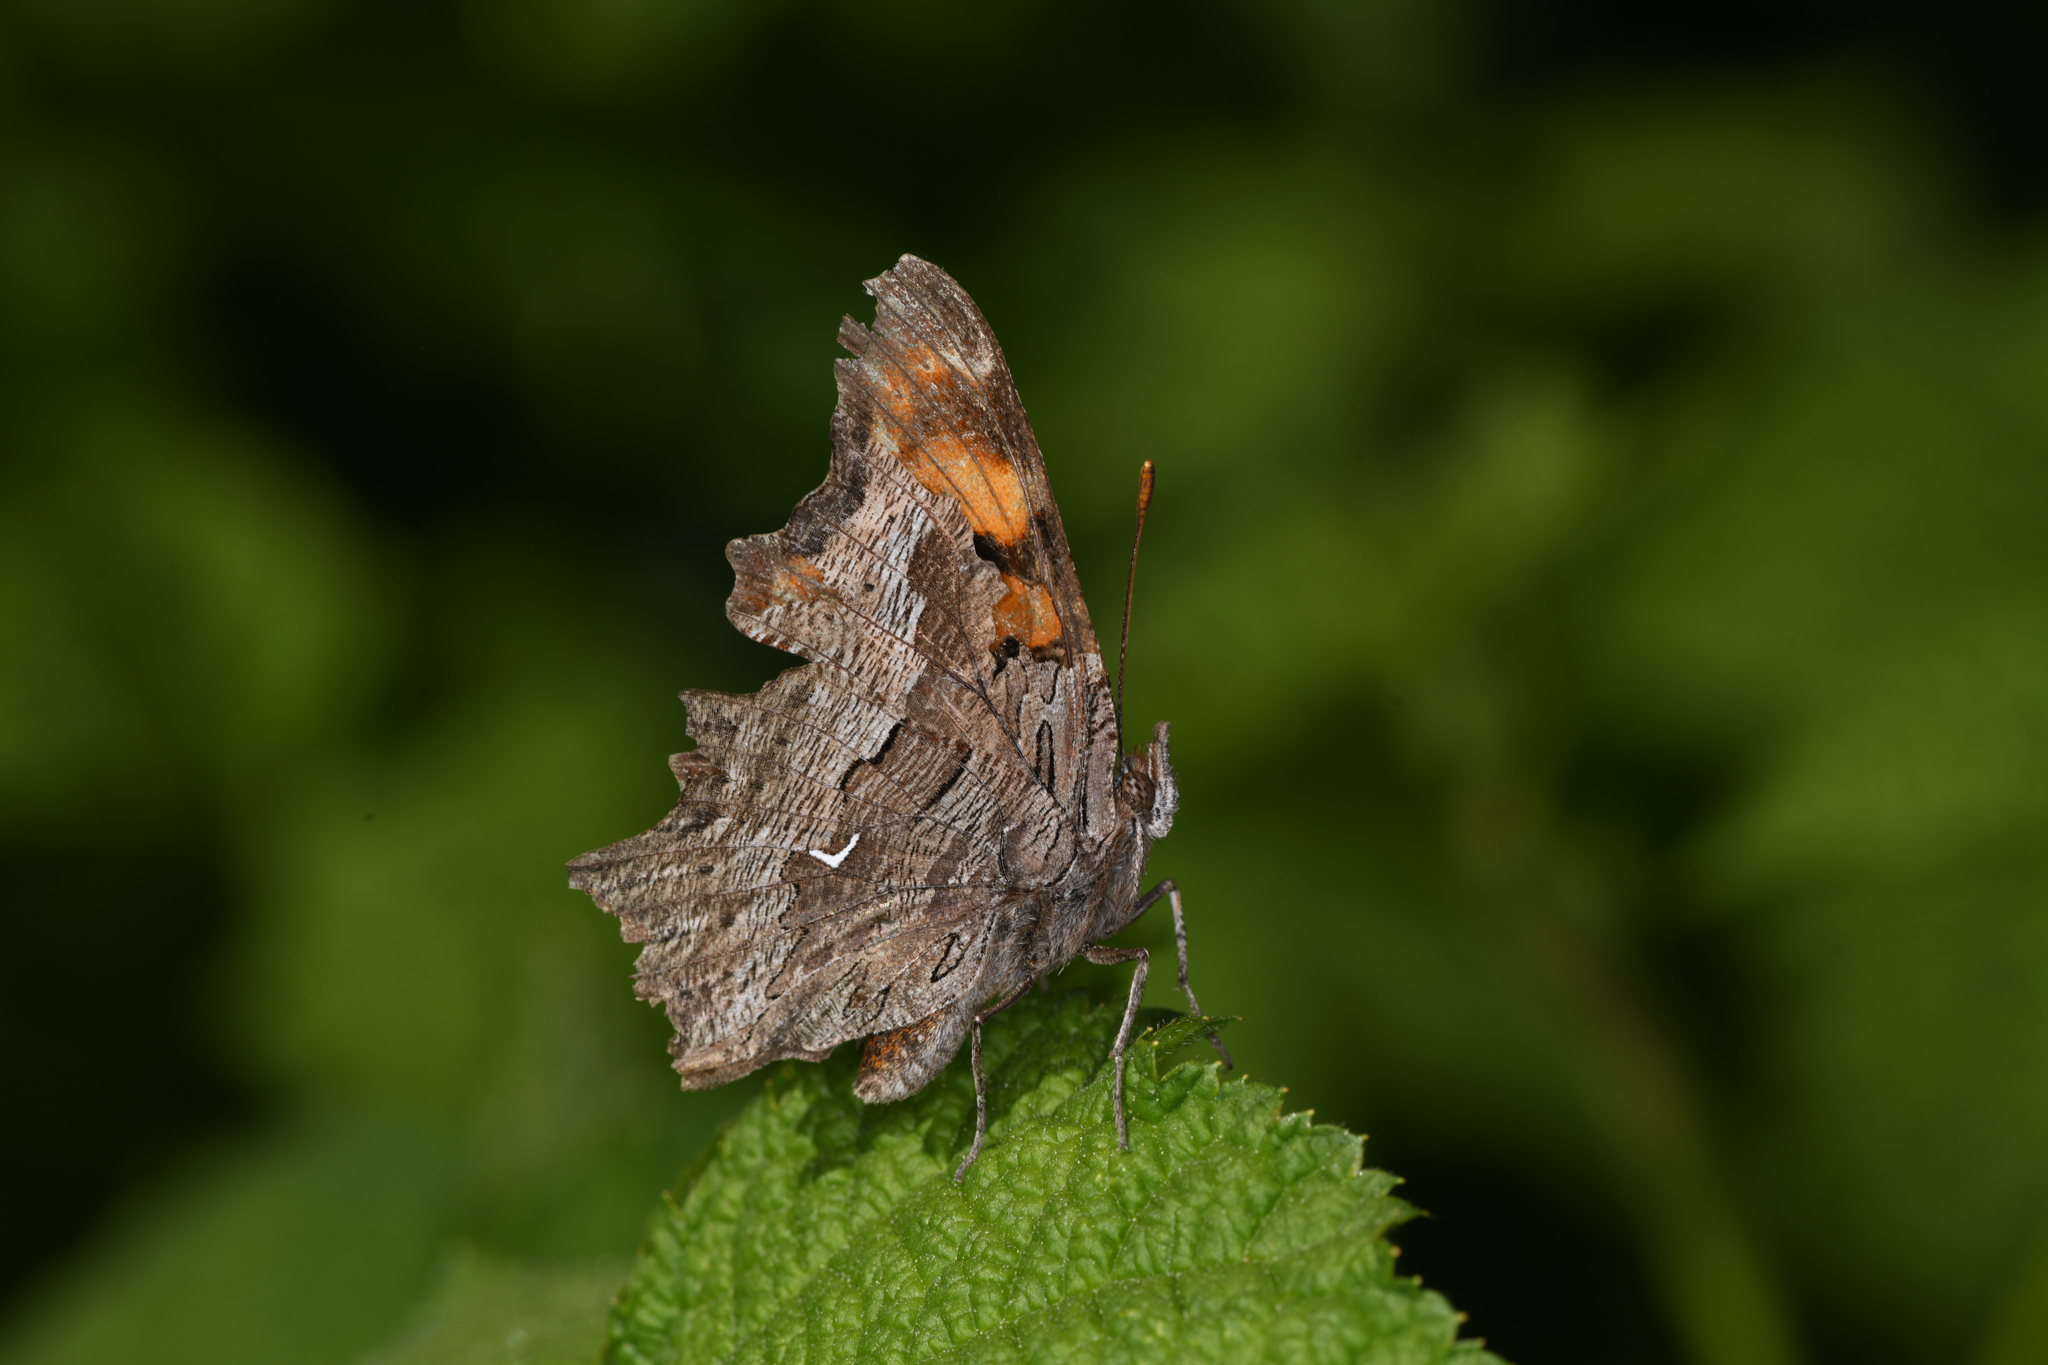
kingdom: Animalia
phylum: Arthropoda
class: Insecta
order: Lepidoptera
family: Nymphalidae
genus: Polygonia
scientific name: Polygonia gracilis
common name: Hoary comma
